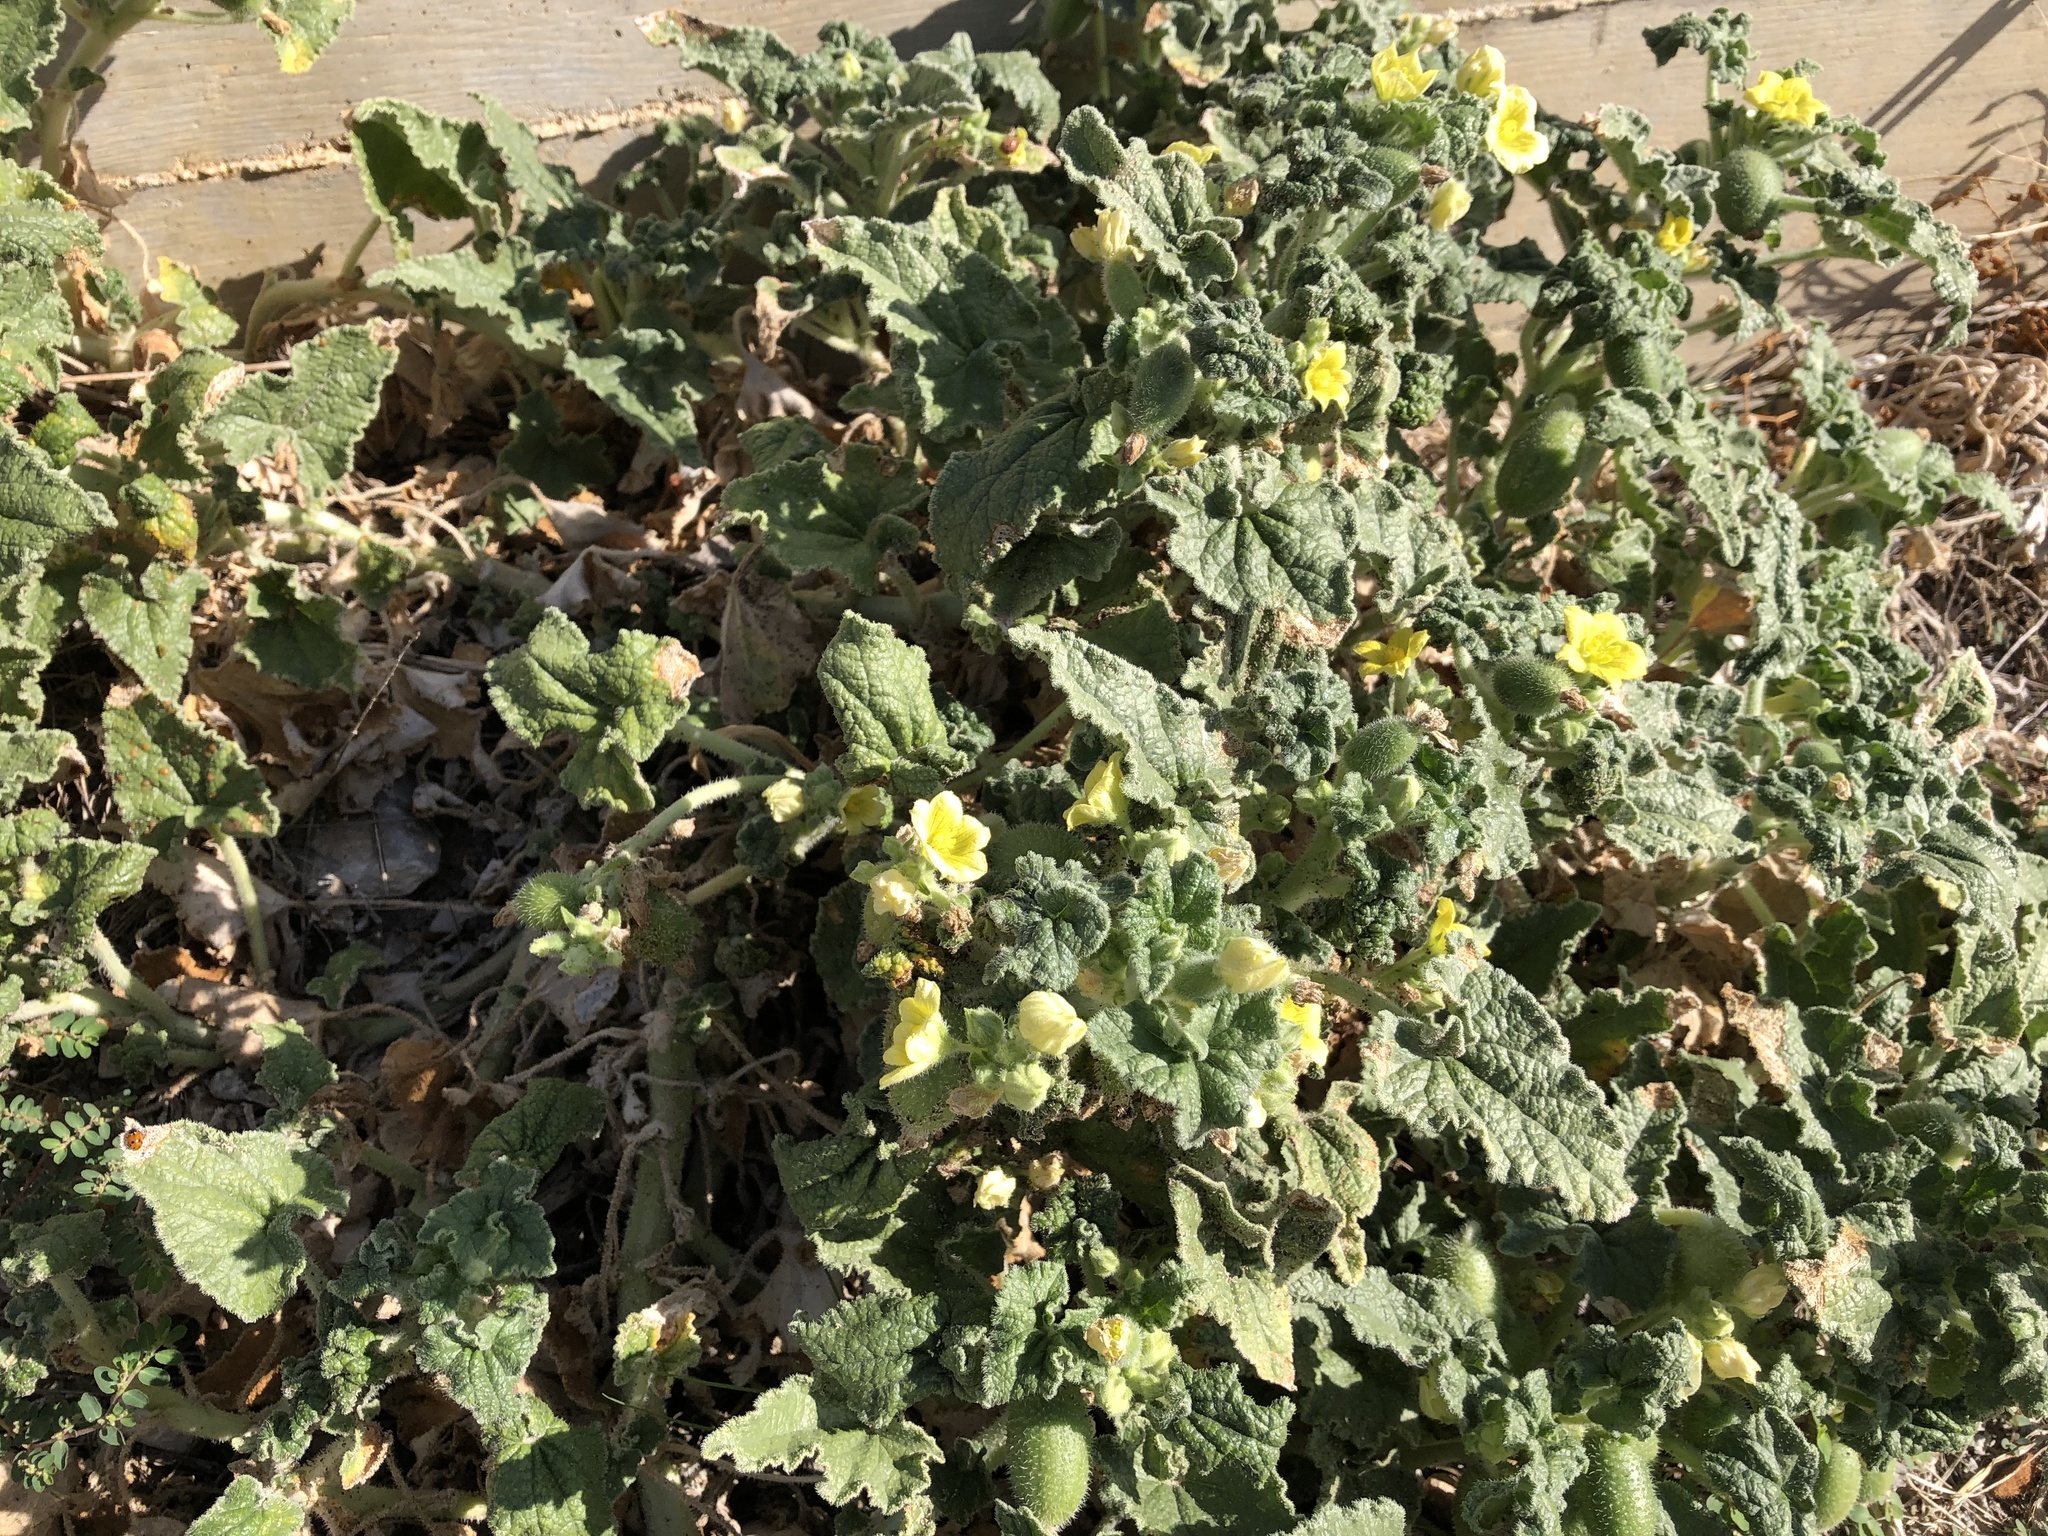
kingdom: Plantae
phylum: Tracheophyta
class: Magnoliopsida
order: Cucurbitales
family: Cucurbitaceae
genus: Ecballium
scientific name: Ecballium elaterium
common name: Squirting cucumber
